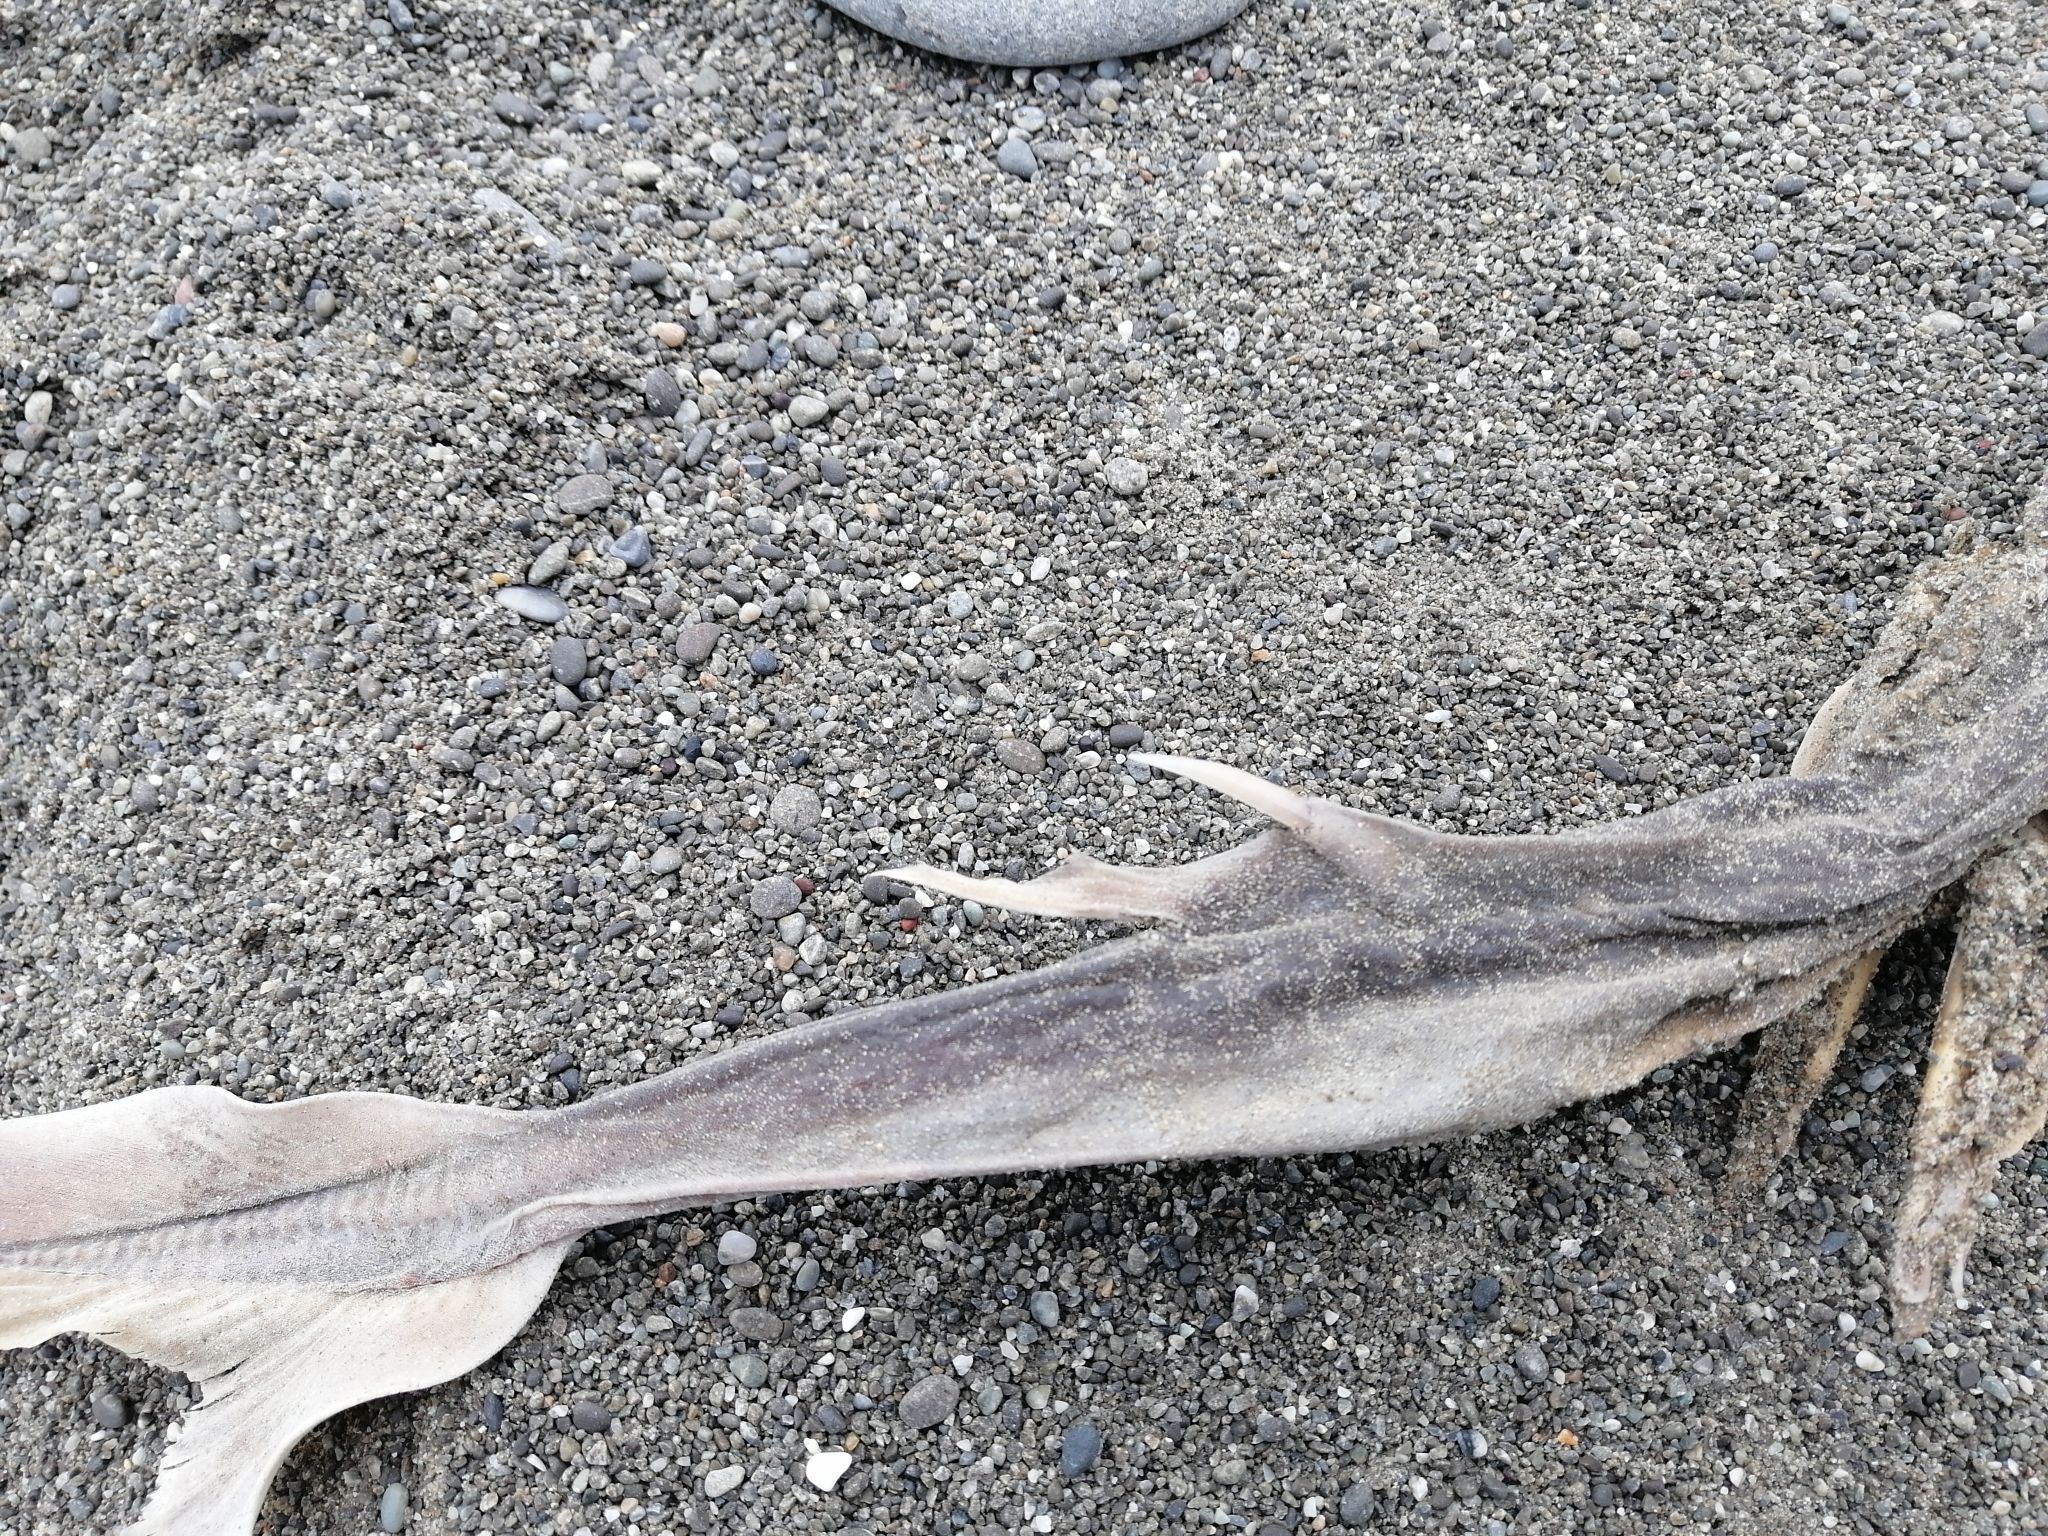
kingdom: Animalia
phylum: Chordata
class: Elasmobranchii
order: Squaliformes
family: Squalidae
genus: Squalus
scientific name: Squalus acanthias
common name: Spurdog
